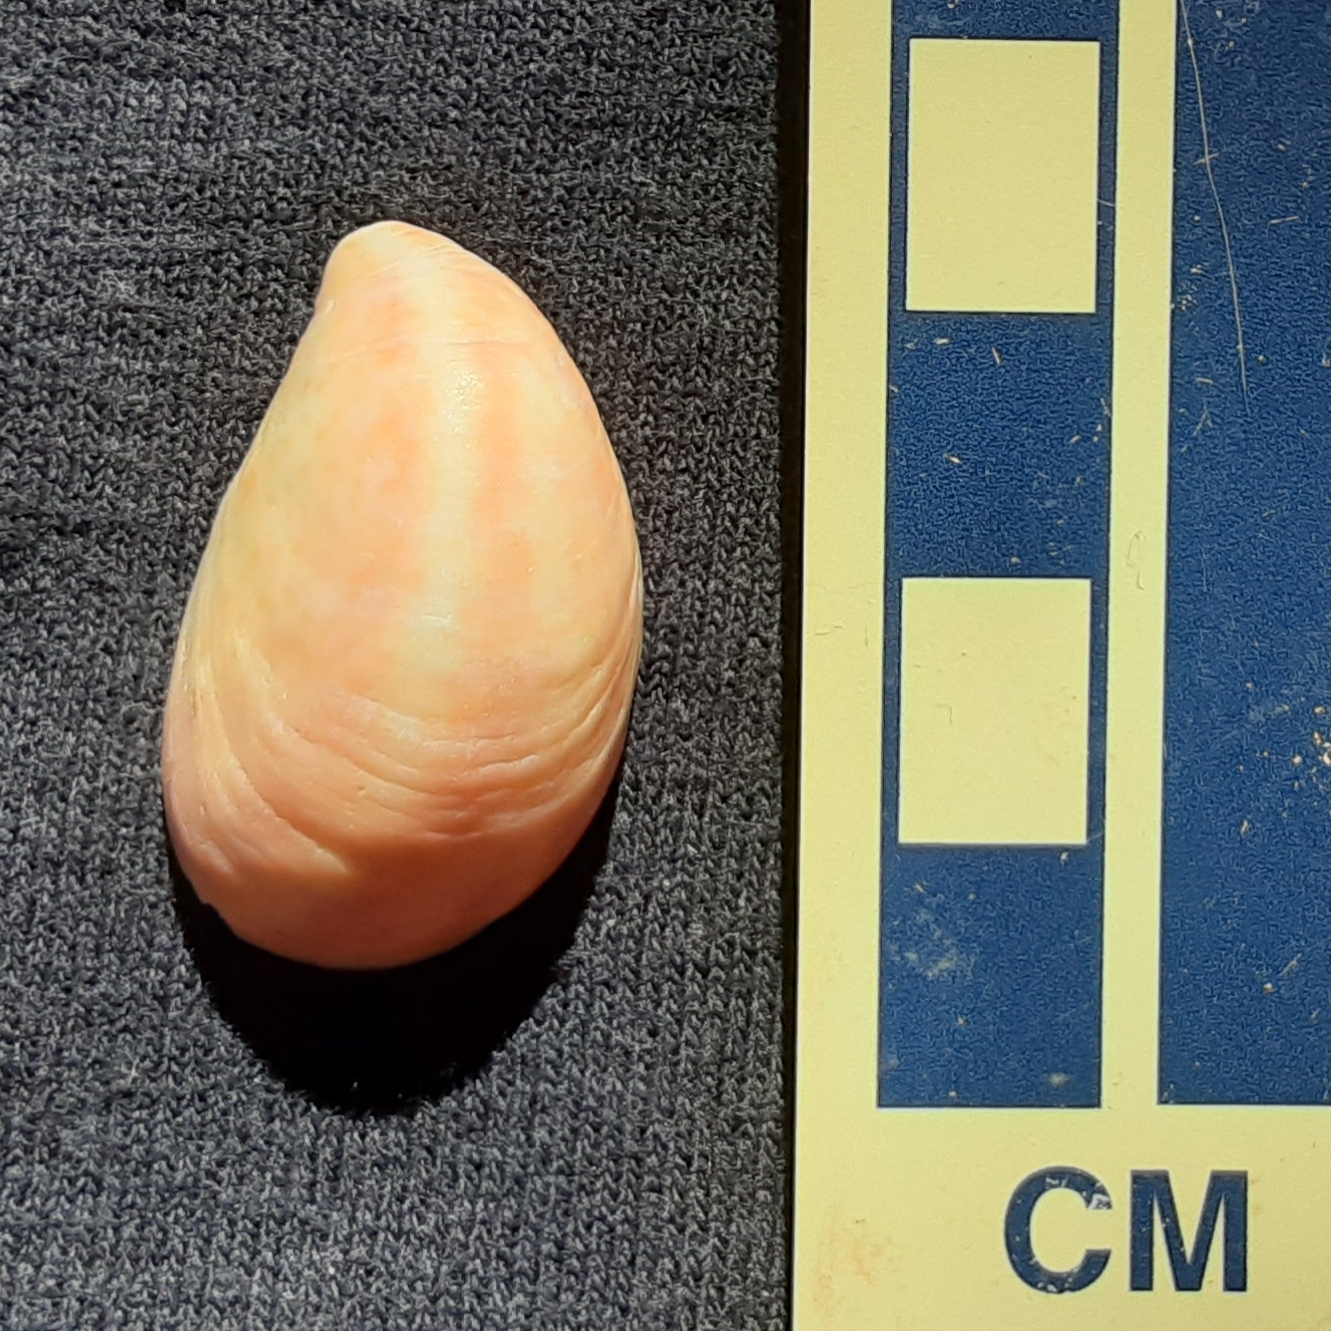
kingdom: Animalia
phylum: Mollusca
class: Gastropoda
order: Littorinimorpha
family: Calyptraeidae
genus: Crepidula
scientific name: Crepidula fornicata
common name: Slipper limpet
